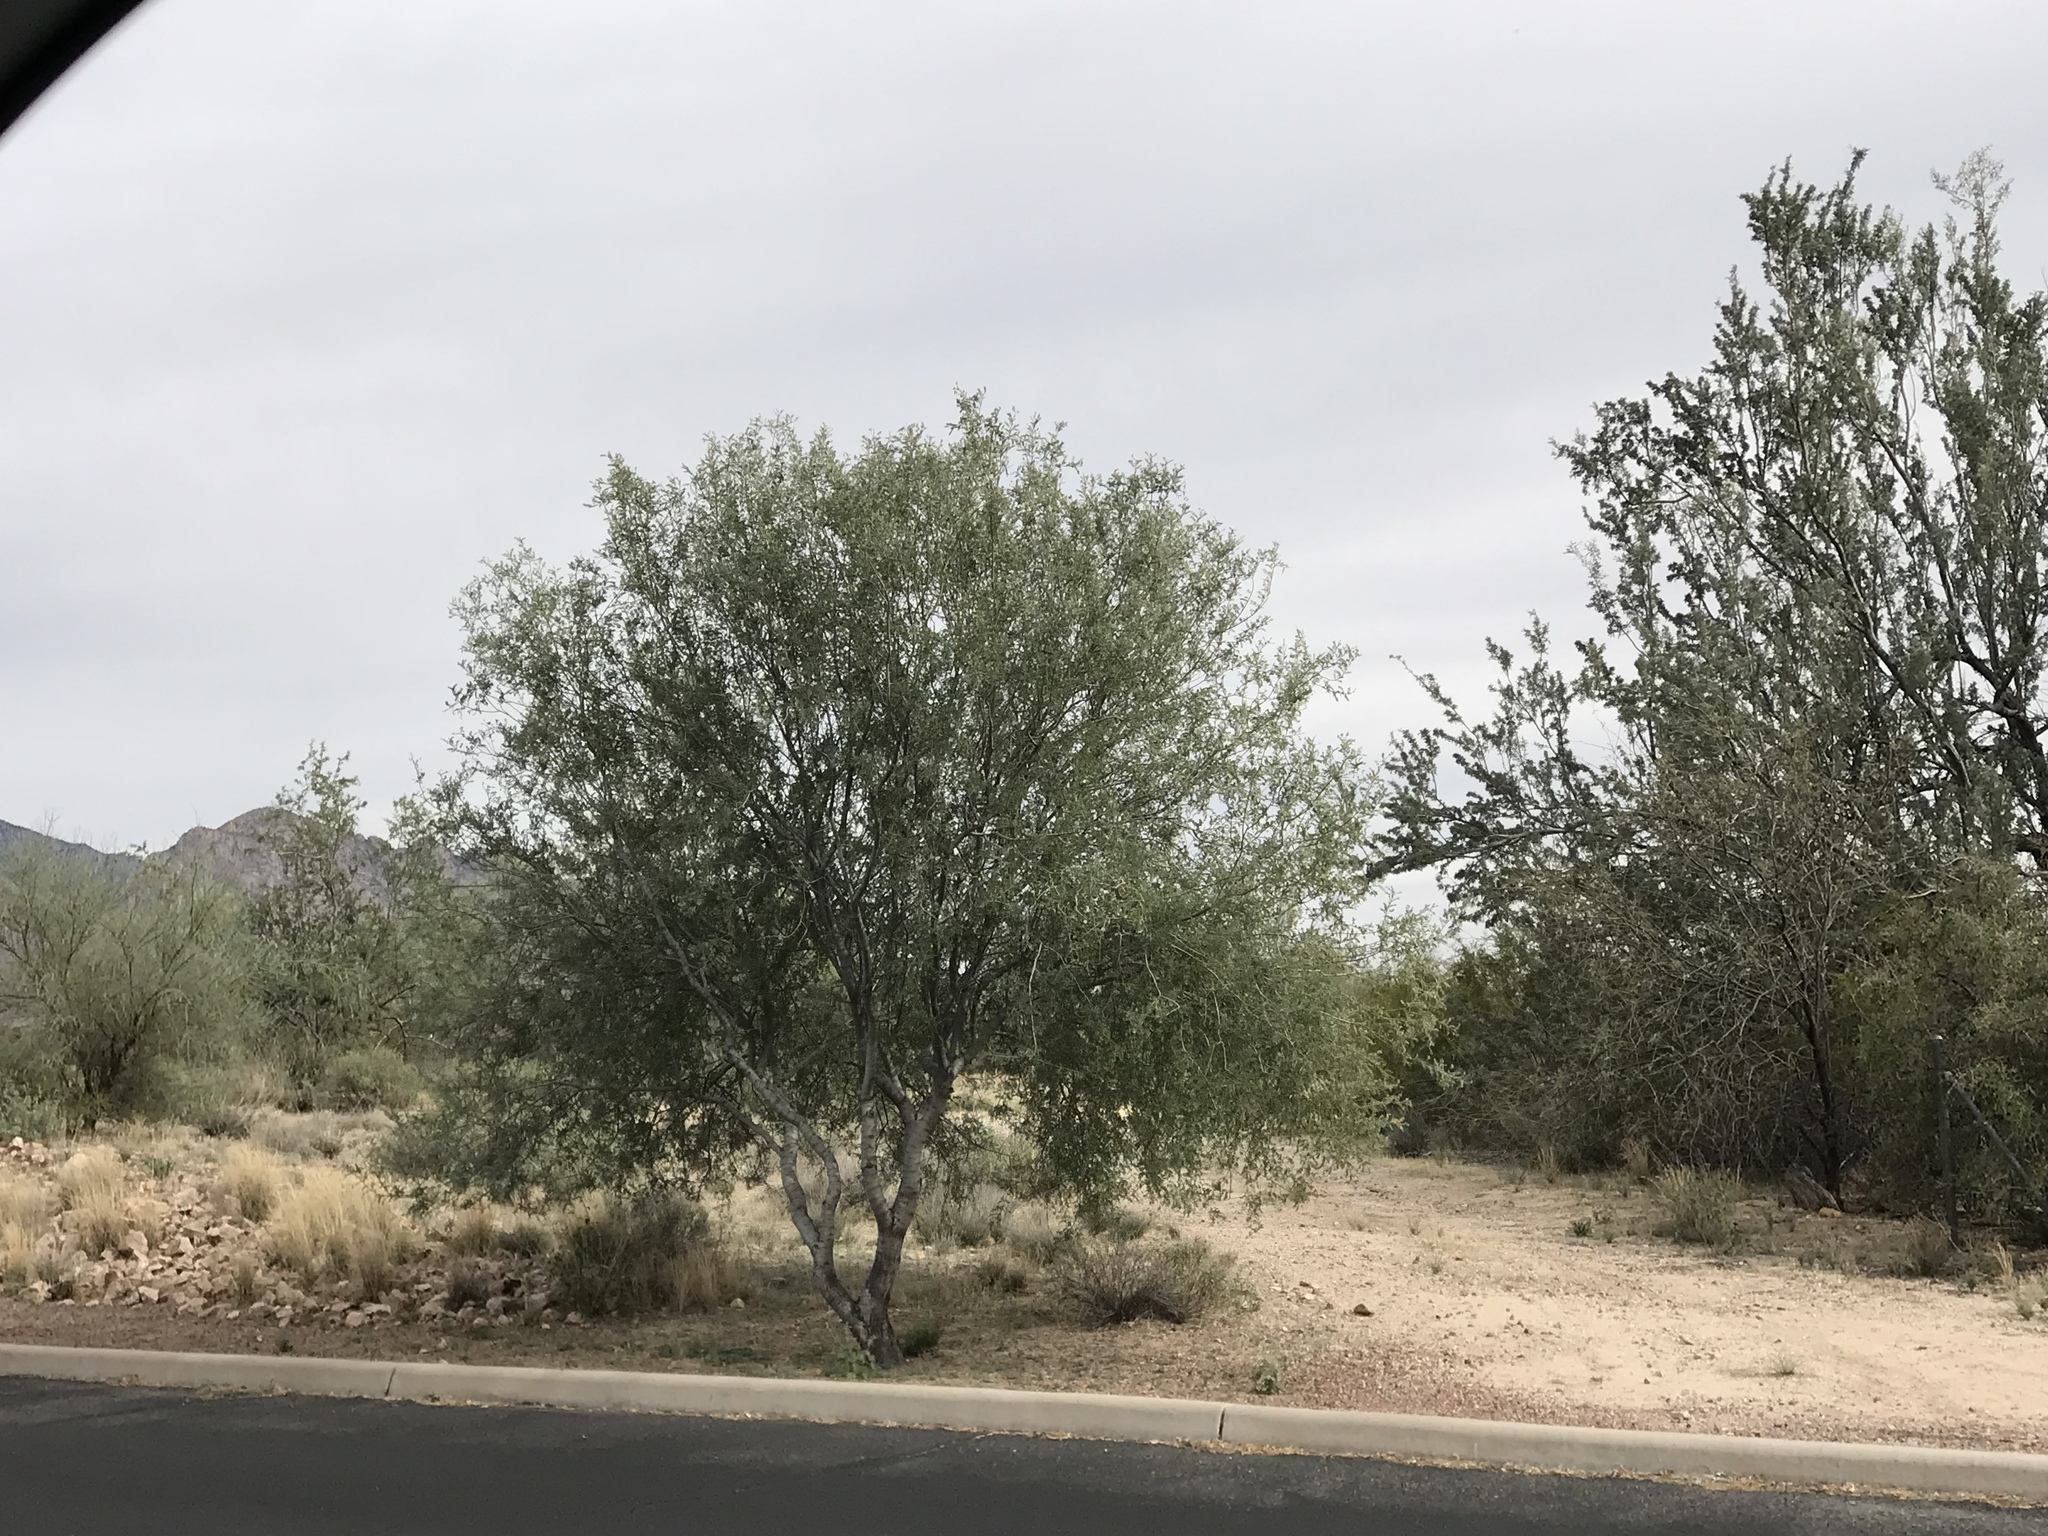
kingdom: Plantae
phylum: Tracheophyta
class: Magnoliopsida
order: Fabales
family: Fabaceae
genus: Olneya
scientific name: Olneya tesota
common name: Desert ironwood
